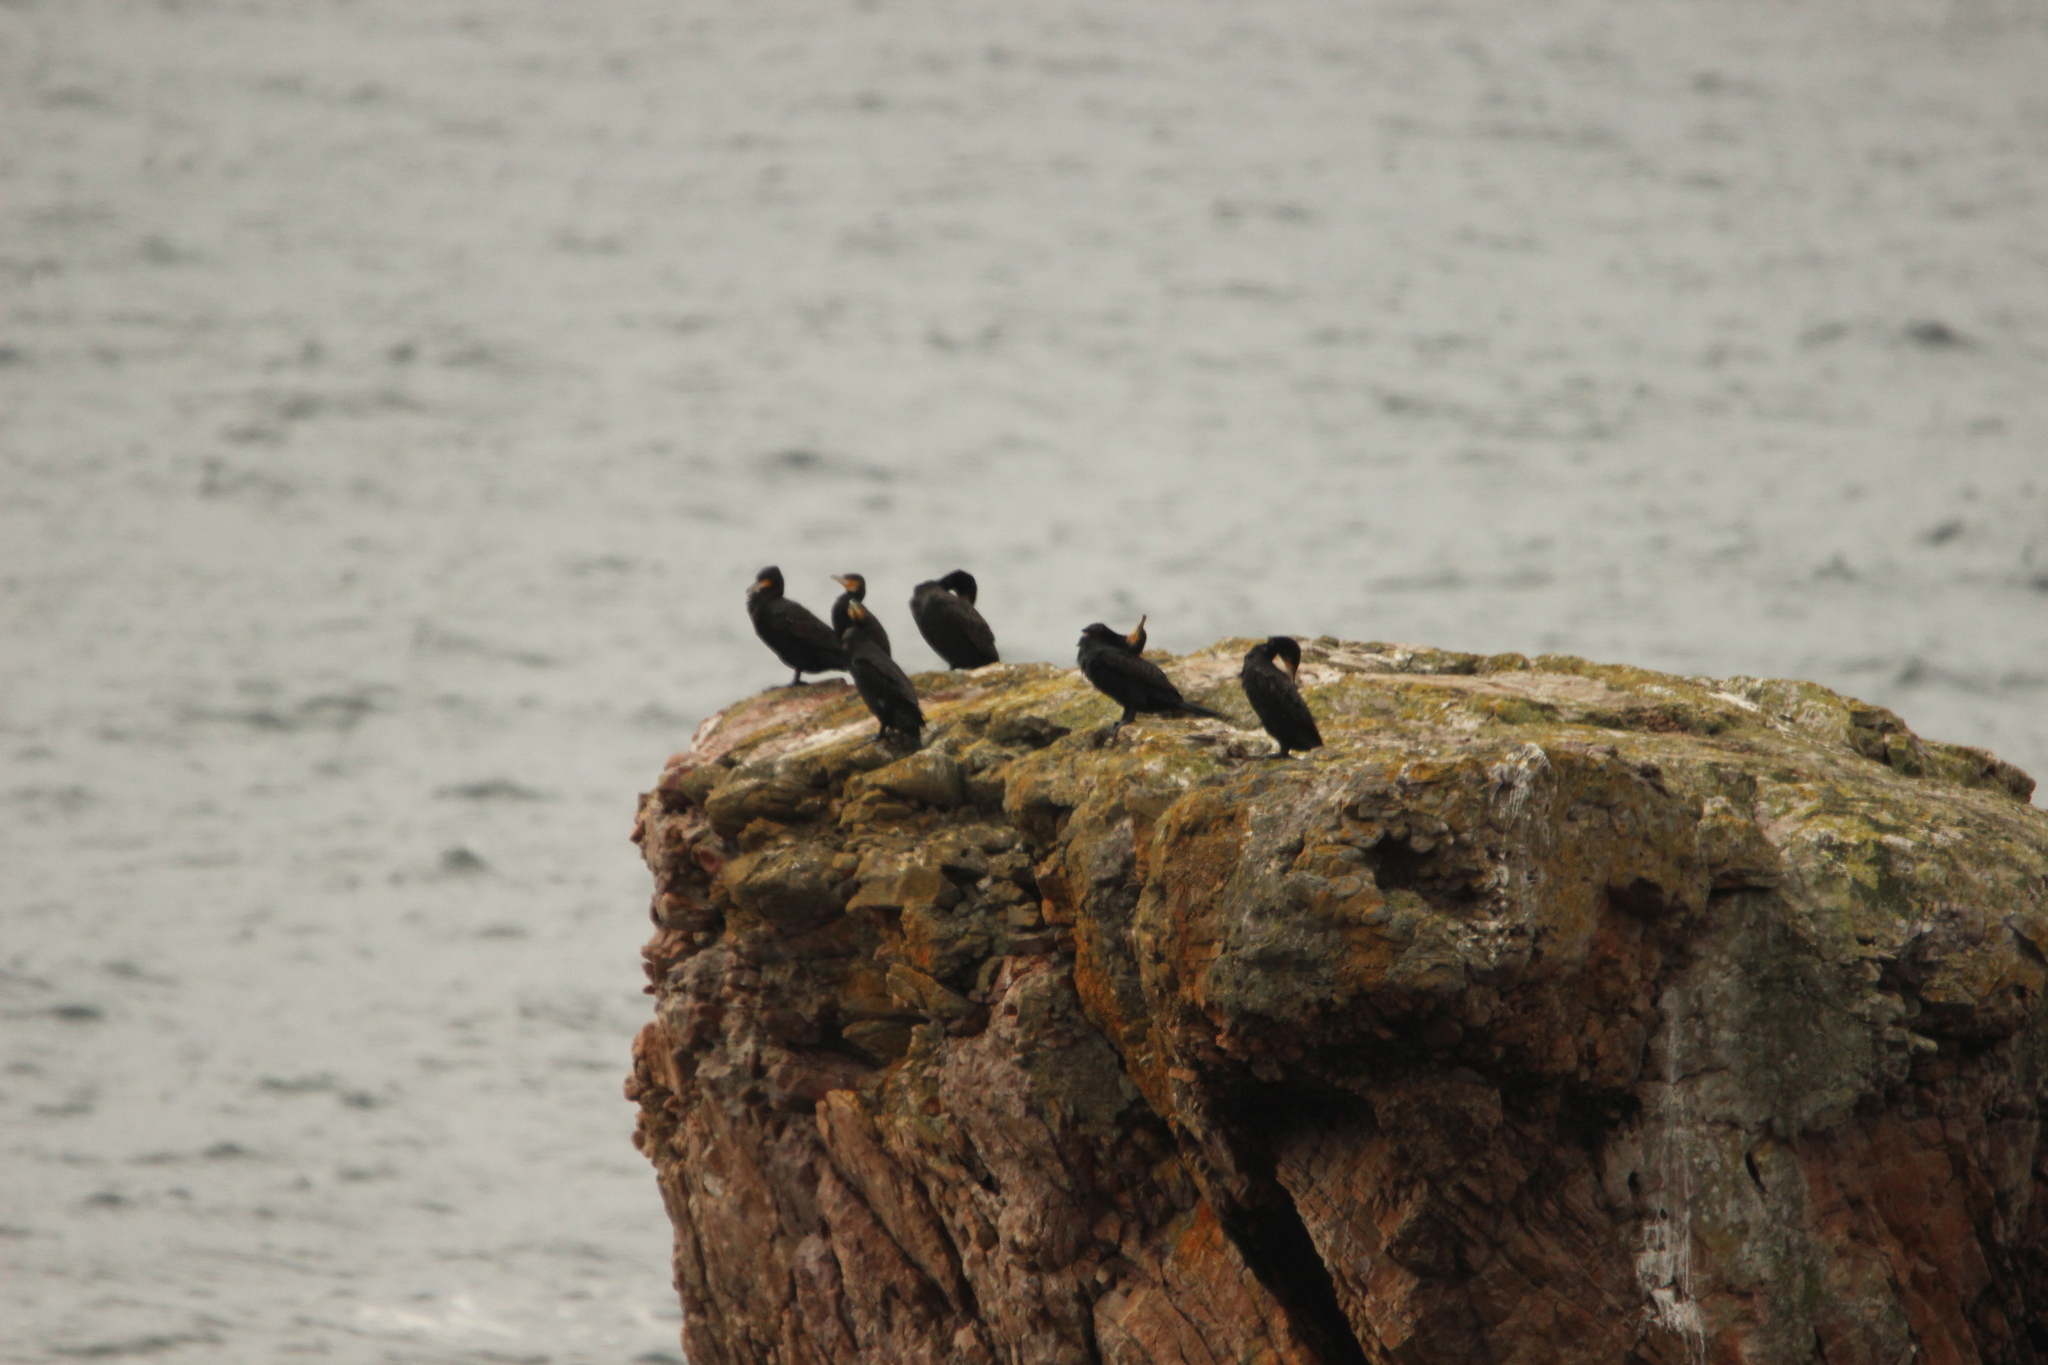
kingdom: Animalia
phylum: Chordata
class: Aves
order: Suliformes
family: Phalacrocoracidae
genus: Phalacrocorax
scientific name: Phalacrocorax carbo
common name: Great cormorant
